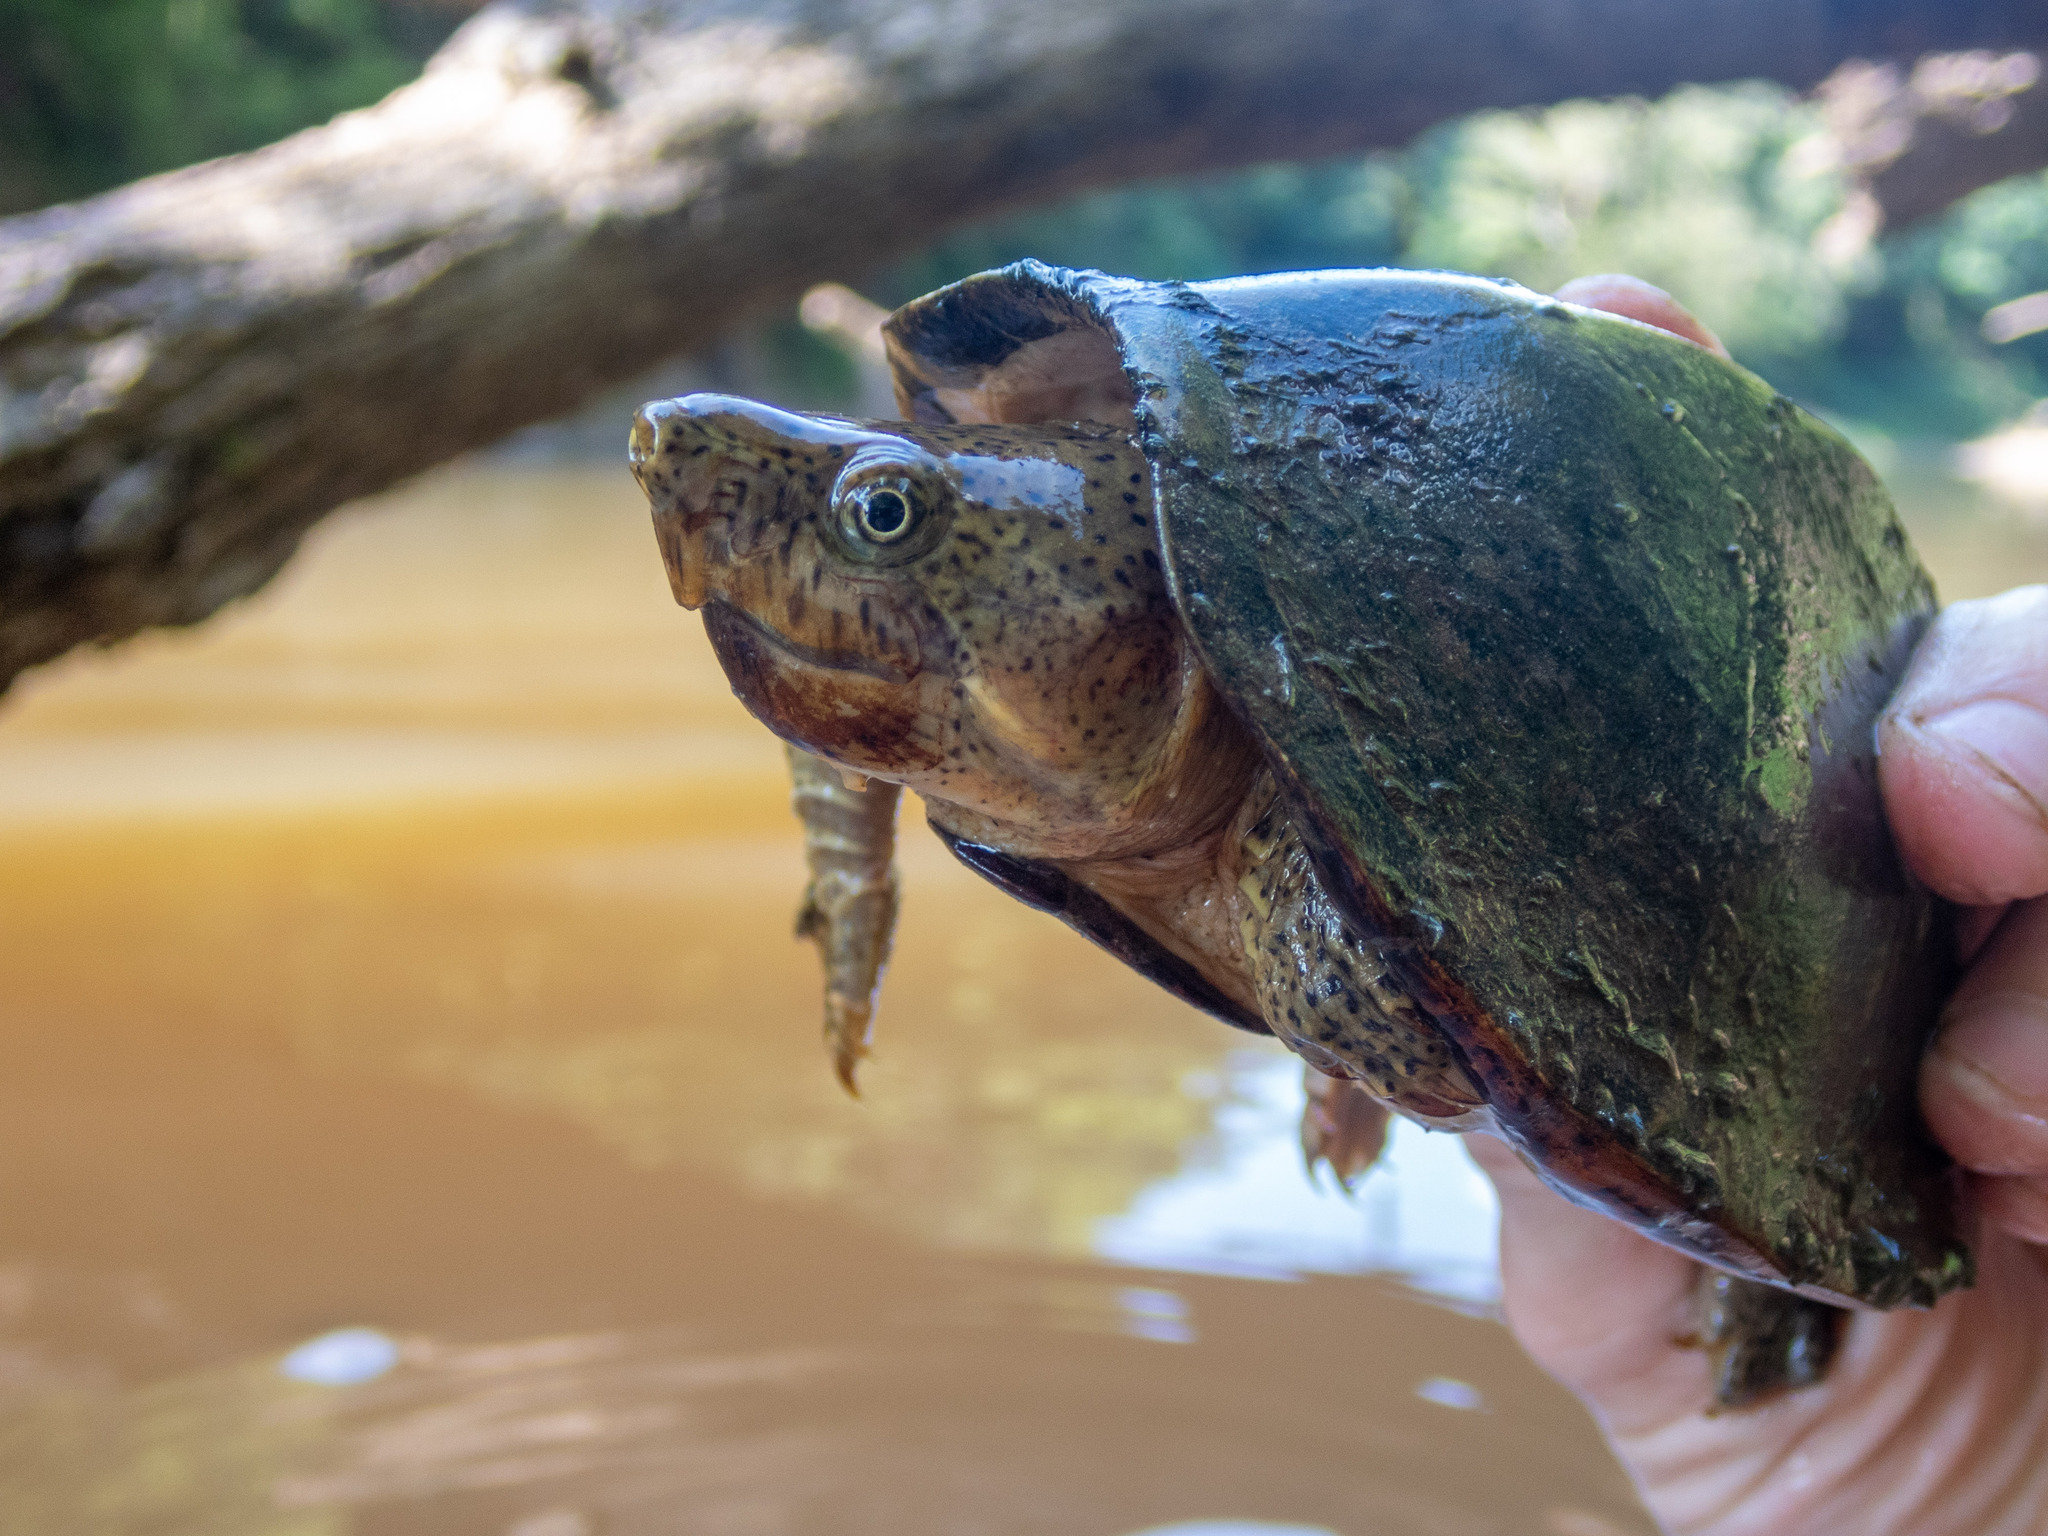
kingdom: Animalia
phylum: Chordata
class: Testudines
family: Kinosternidae
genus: Sternotherus
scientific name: Sternotherus carinatus
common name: Razor-backed musk turtle
